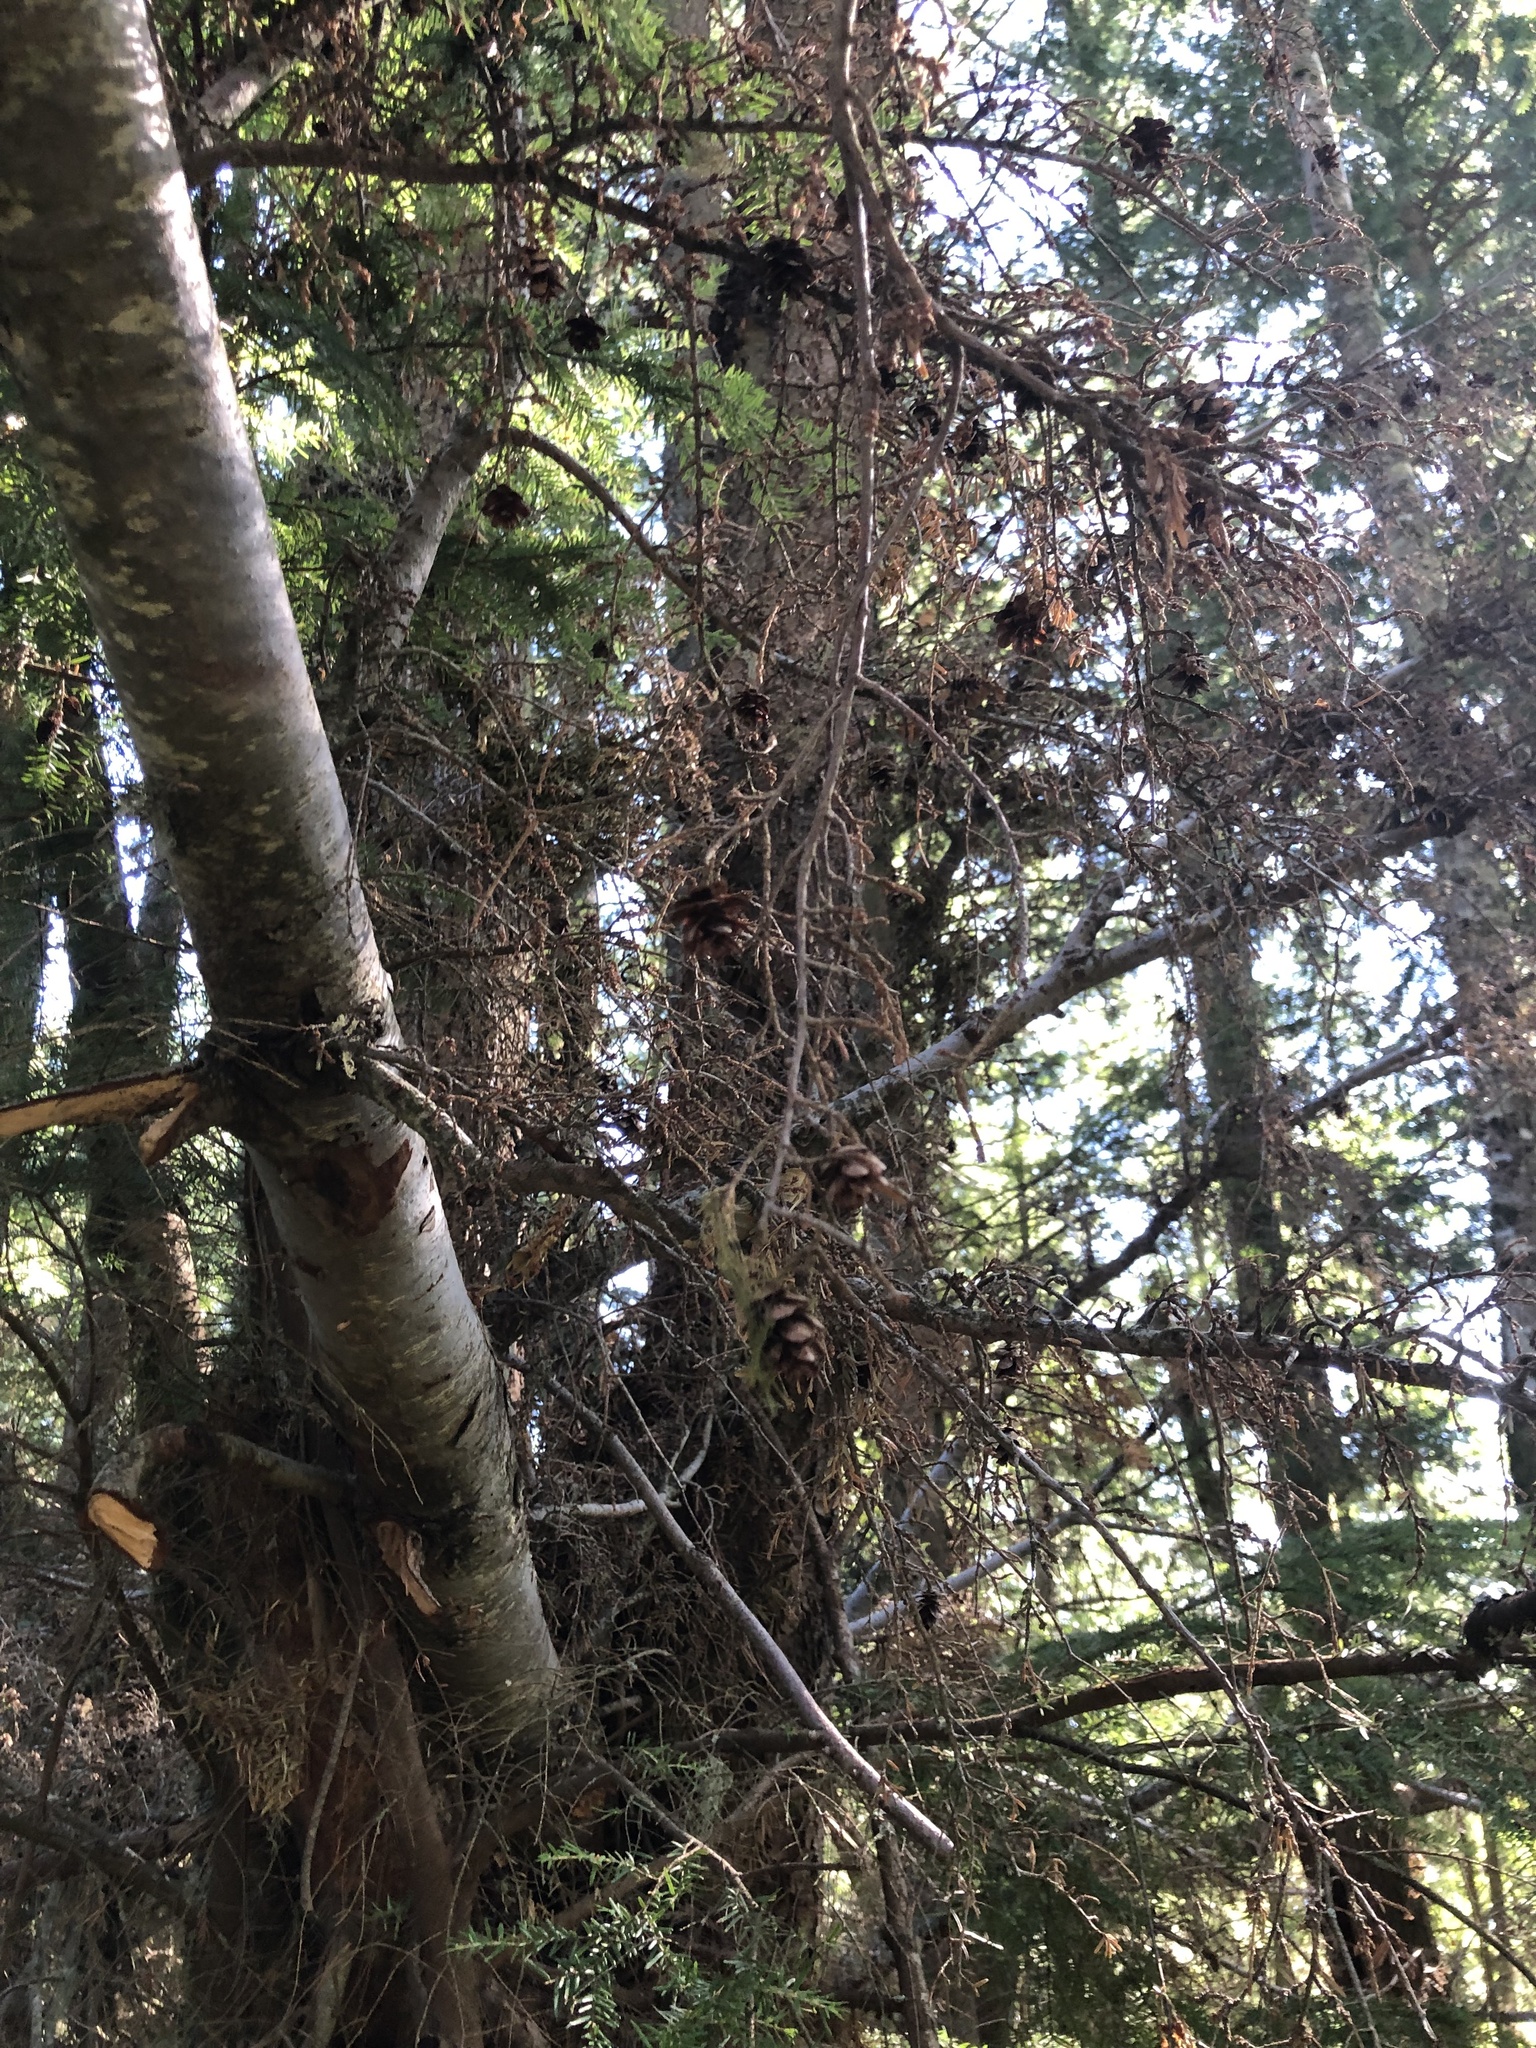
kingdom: Plantae
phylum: Tracheophyta
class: Pinopsida
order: Pinales
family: Pinaceae
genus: Tsuga
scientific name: Tsuga heterophylla
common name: Western hemlock
